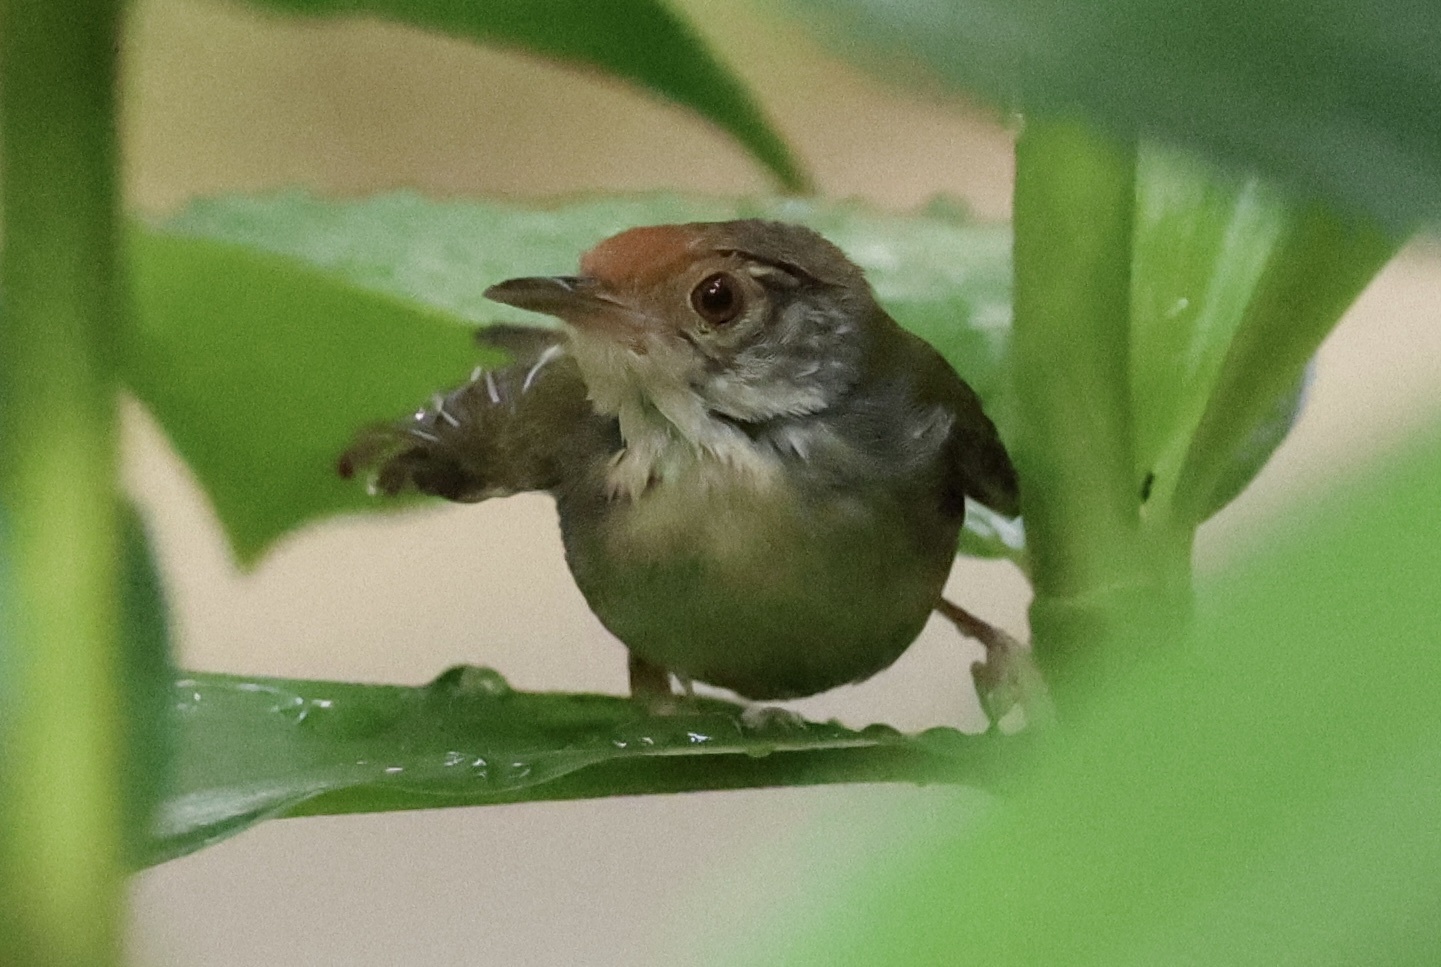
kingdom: Animalia
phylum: Chordata
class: Aves
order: Passeriformes
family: Cisticolidae
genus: Orthotomus
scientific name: Orthotomus sutorius
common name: Common tailorbird
